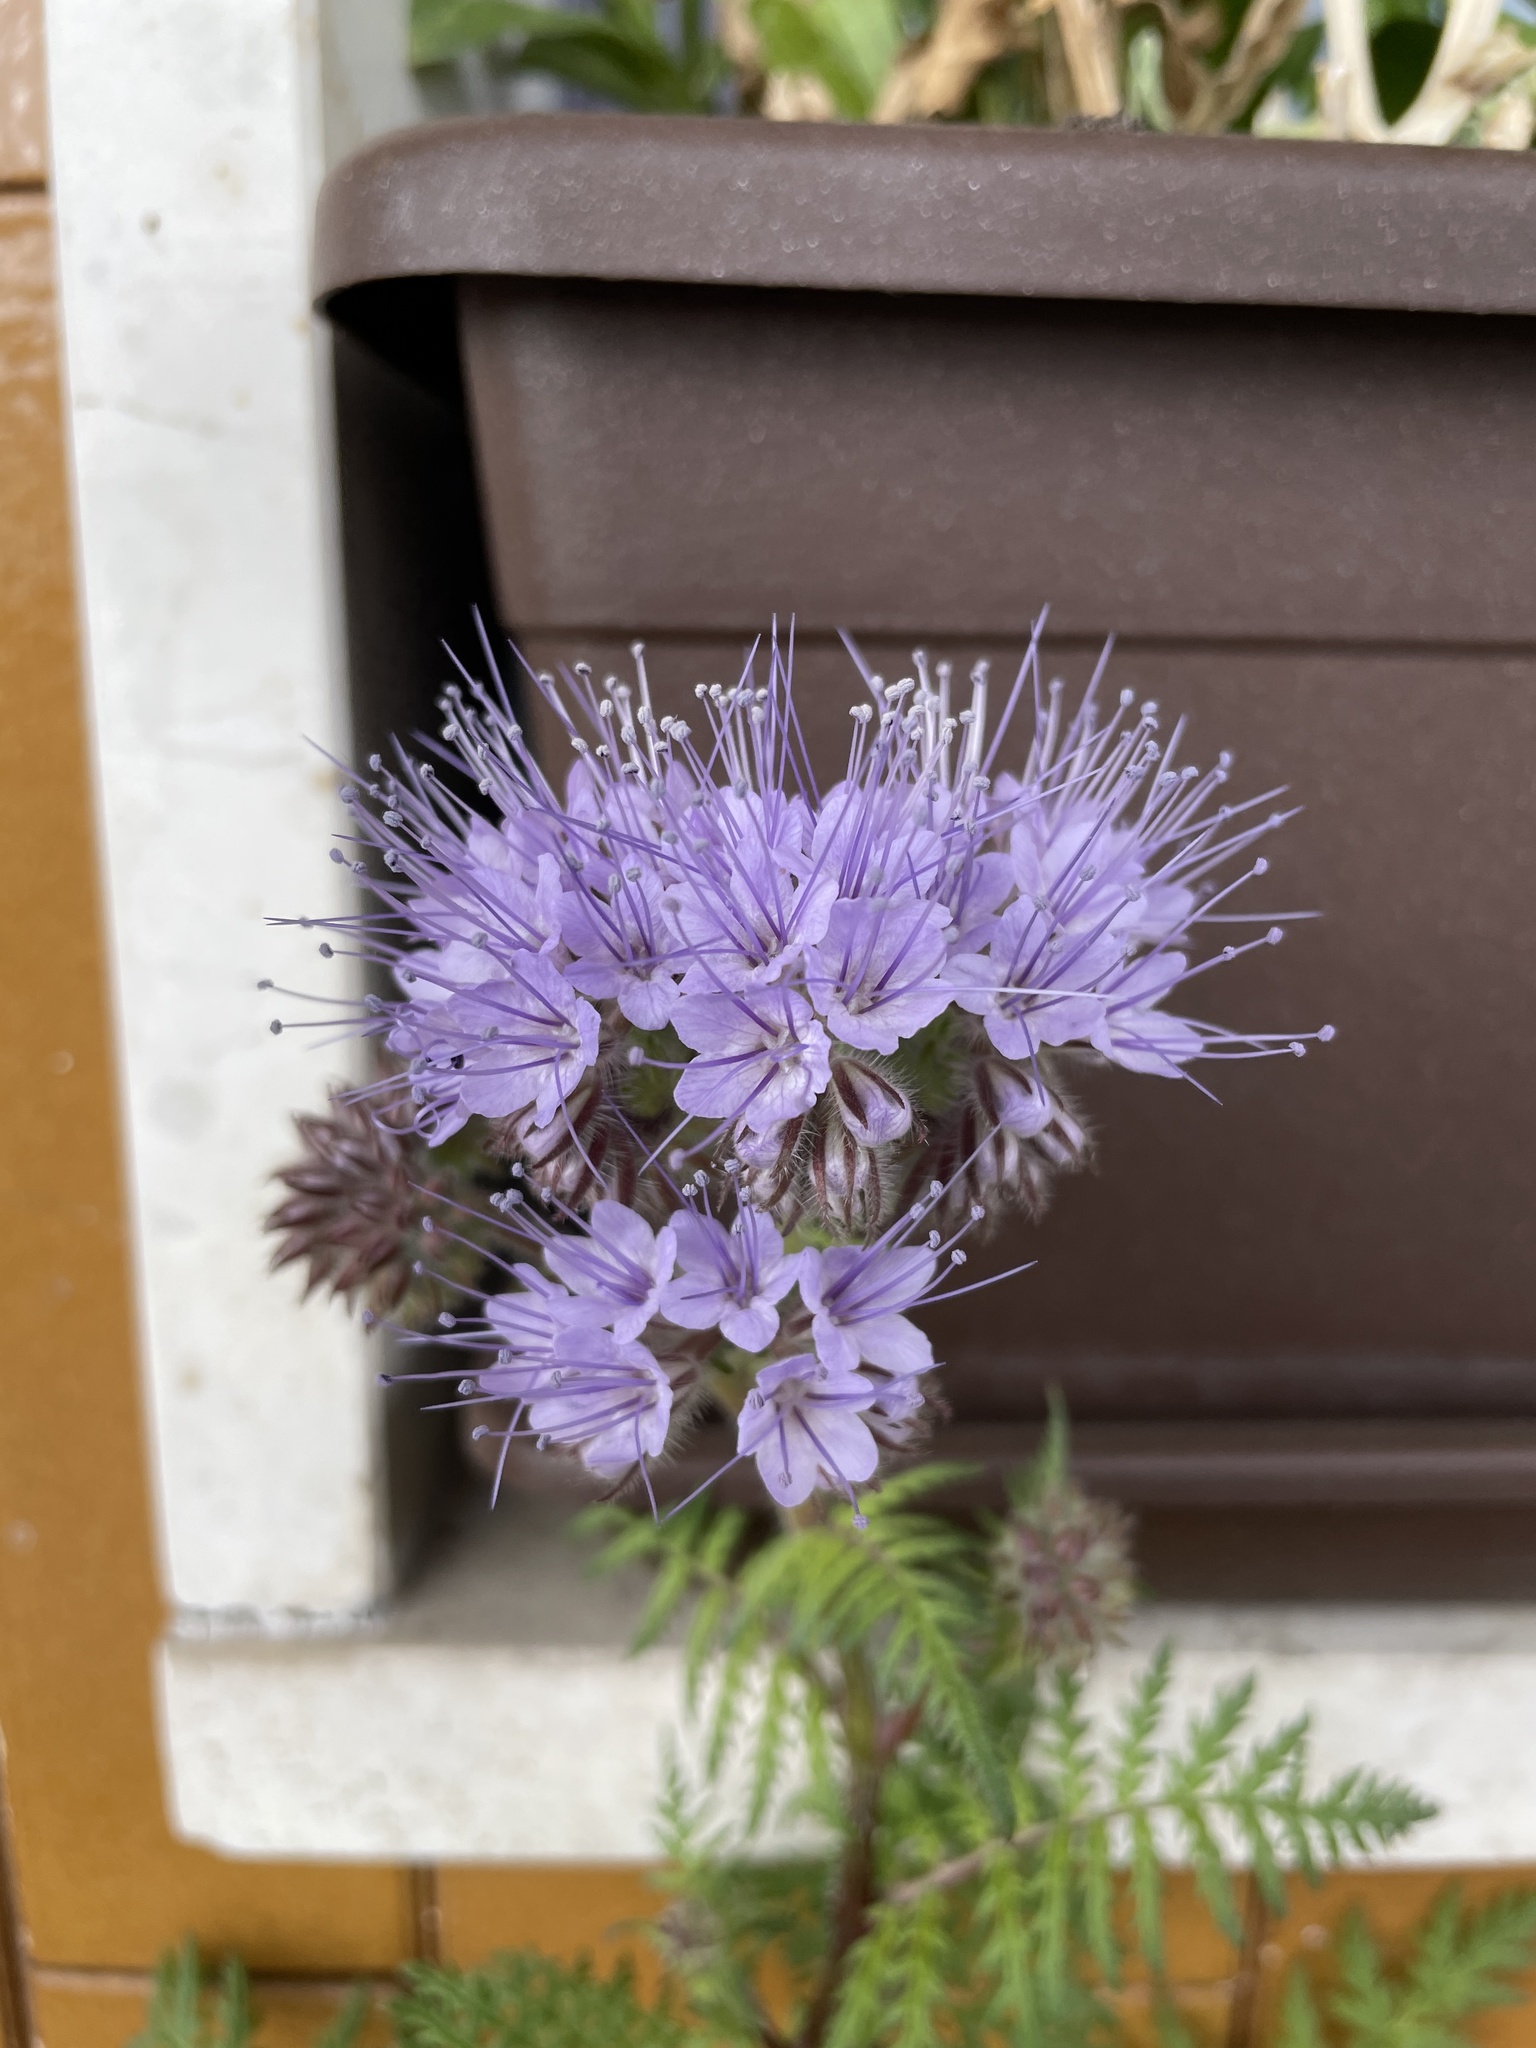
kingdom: Plantae
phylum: Tracheophyta
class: Magnoliopsida
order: Boraginales
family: Hydrophyllaceae
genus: Phacelia
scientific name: Phacelia tanacetifolia
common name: Phacelia
